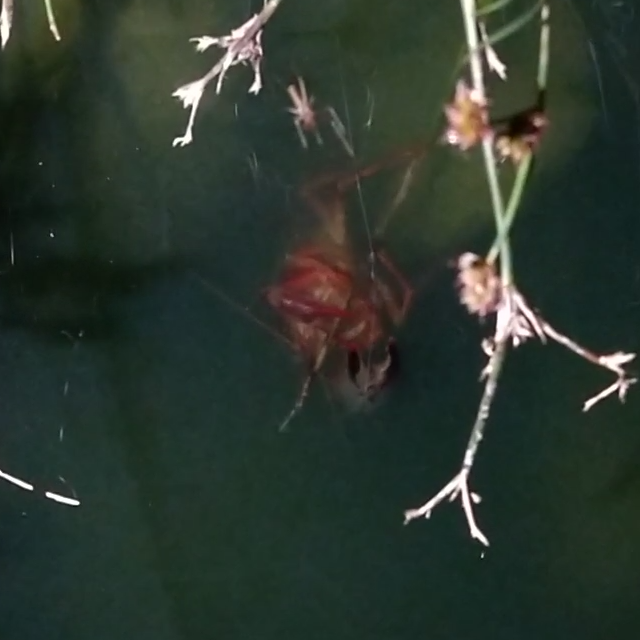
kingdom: Animalia
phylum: Arthropoda
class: Malacostraca
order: Decapoda
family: Cambaridae
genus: Procambarus
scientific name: Procambarus clarkii
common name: Red swamp crayfish
